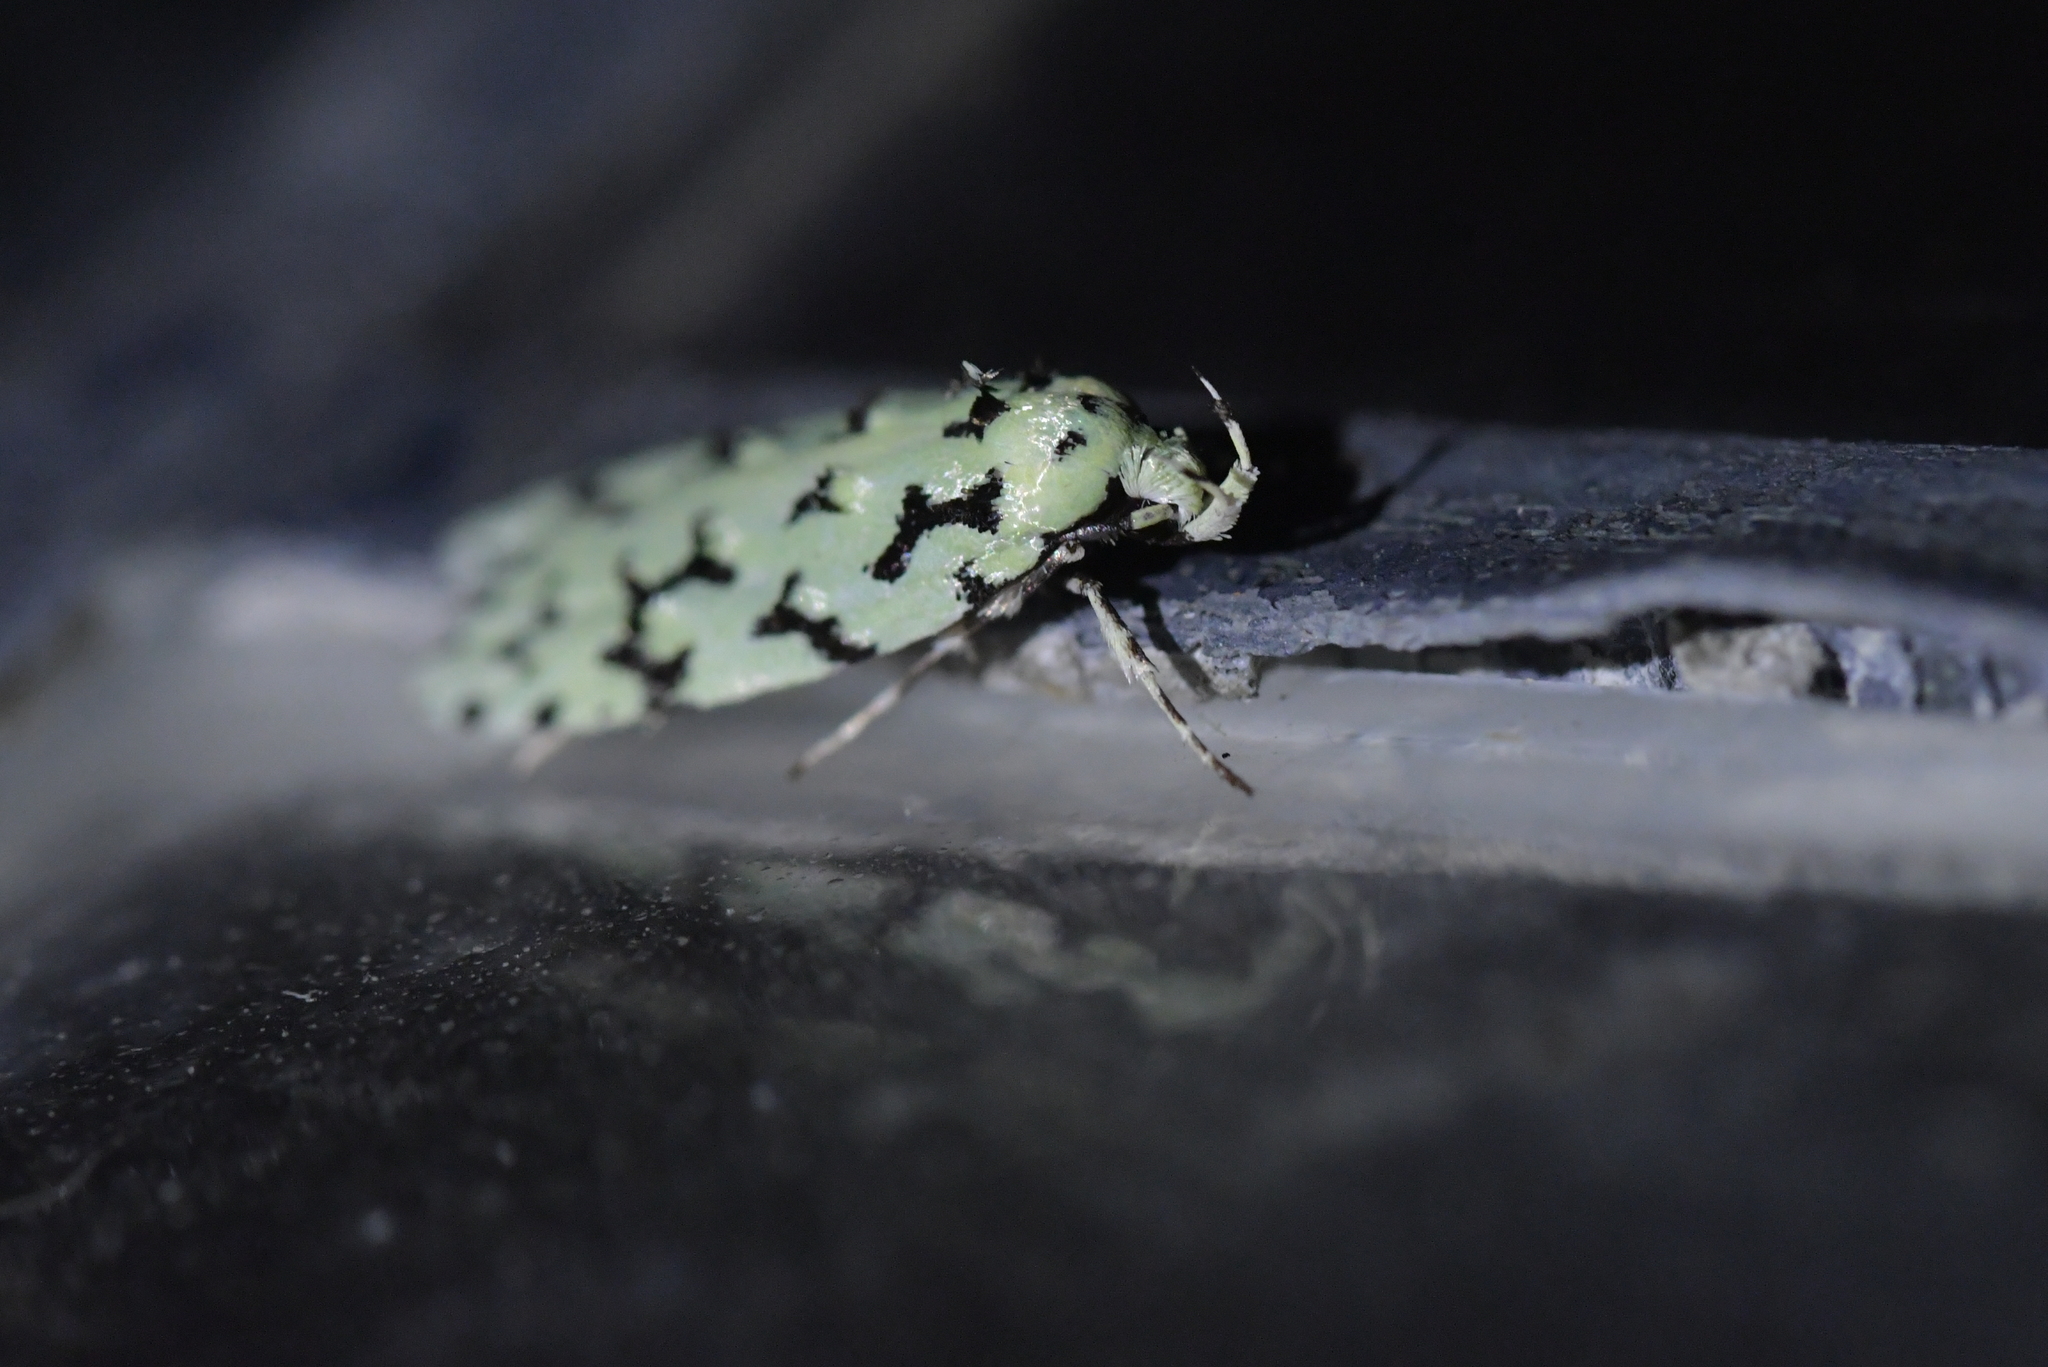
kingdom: Animalia
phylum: Arthropoda
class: Insecta
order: Lepidoptera
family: Oecophoridae
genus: Izatha
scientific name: Izatha huttoni
